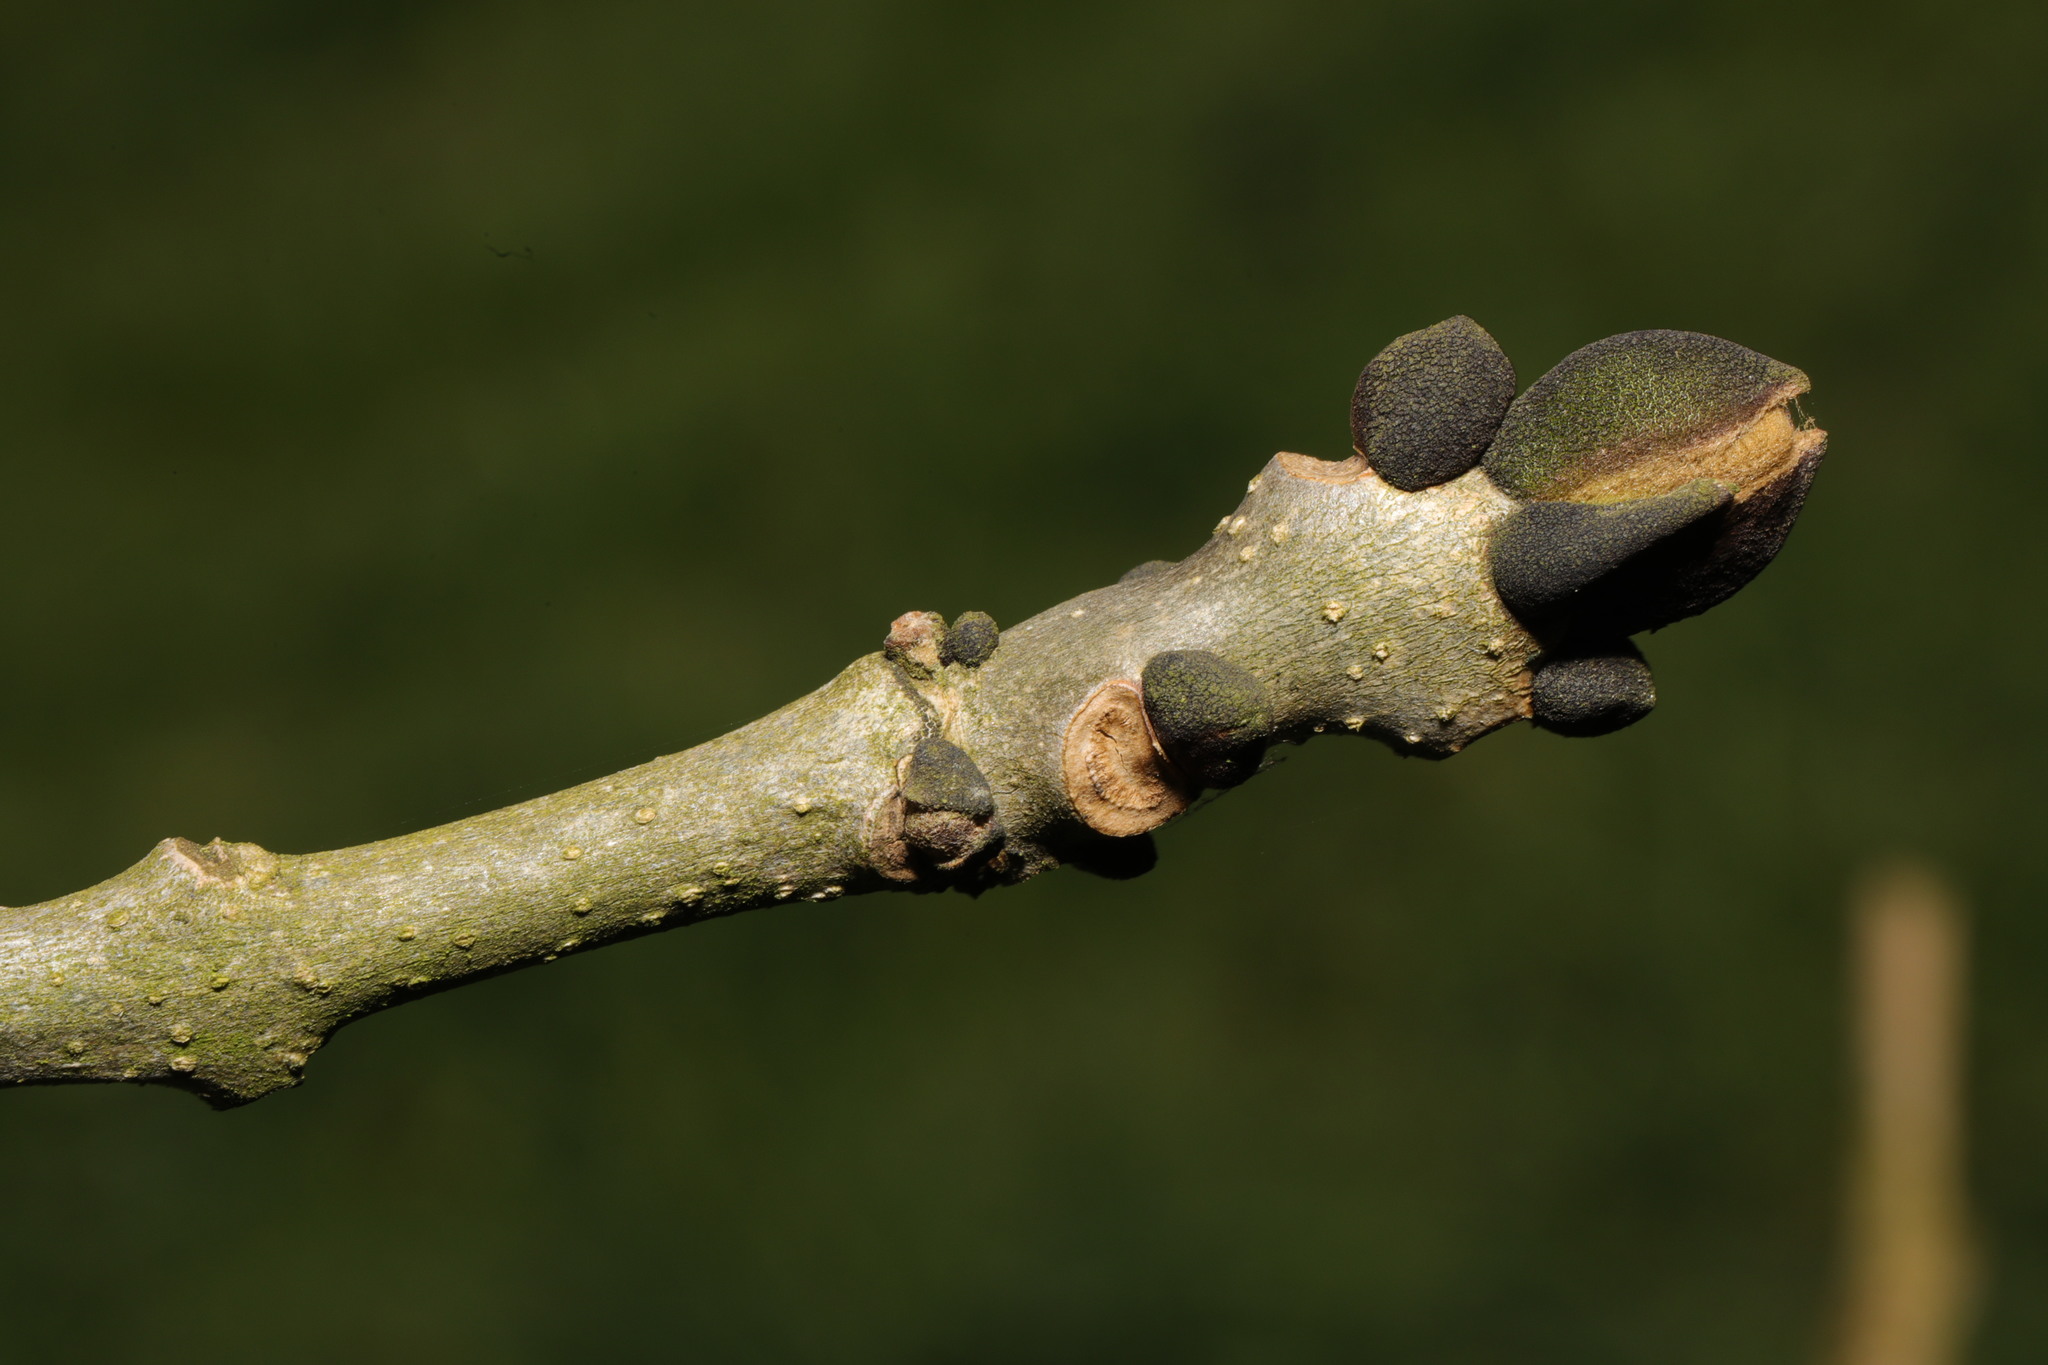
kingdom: Plantae
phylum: Tracheophyta
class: Magnoliopsida
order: Lamiales
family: Oleaceae
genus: Fraxinus
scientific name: Fraxinus excelsior
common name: European ash
